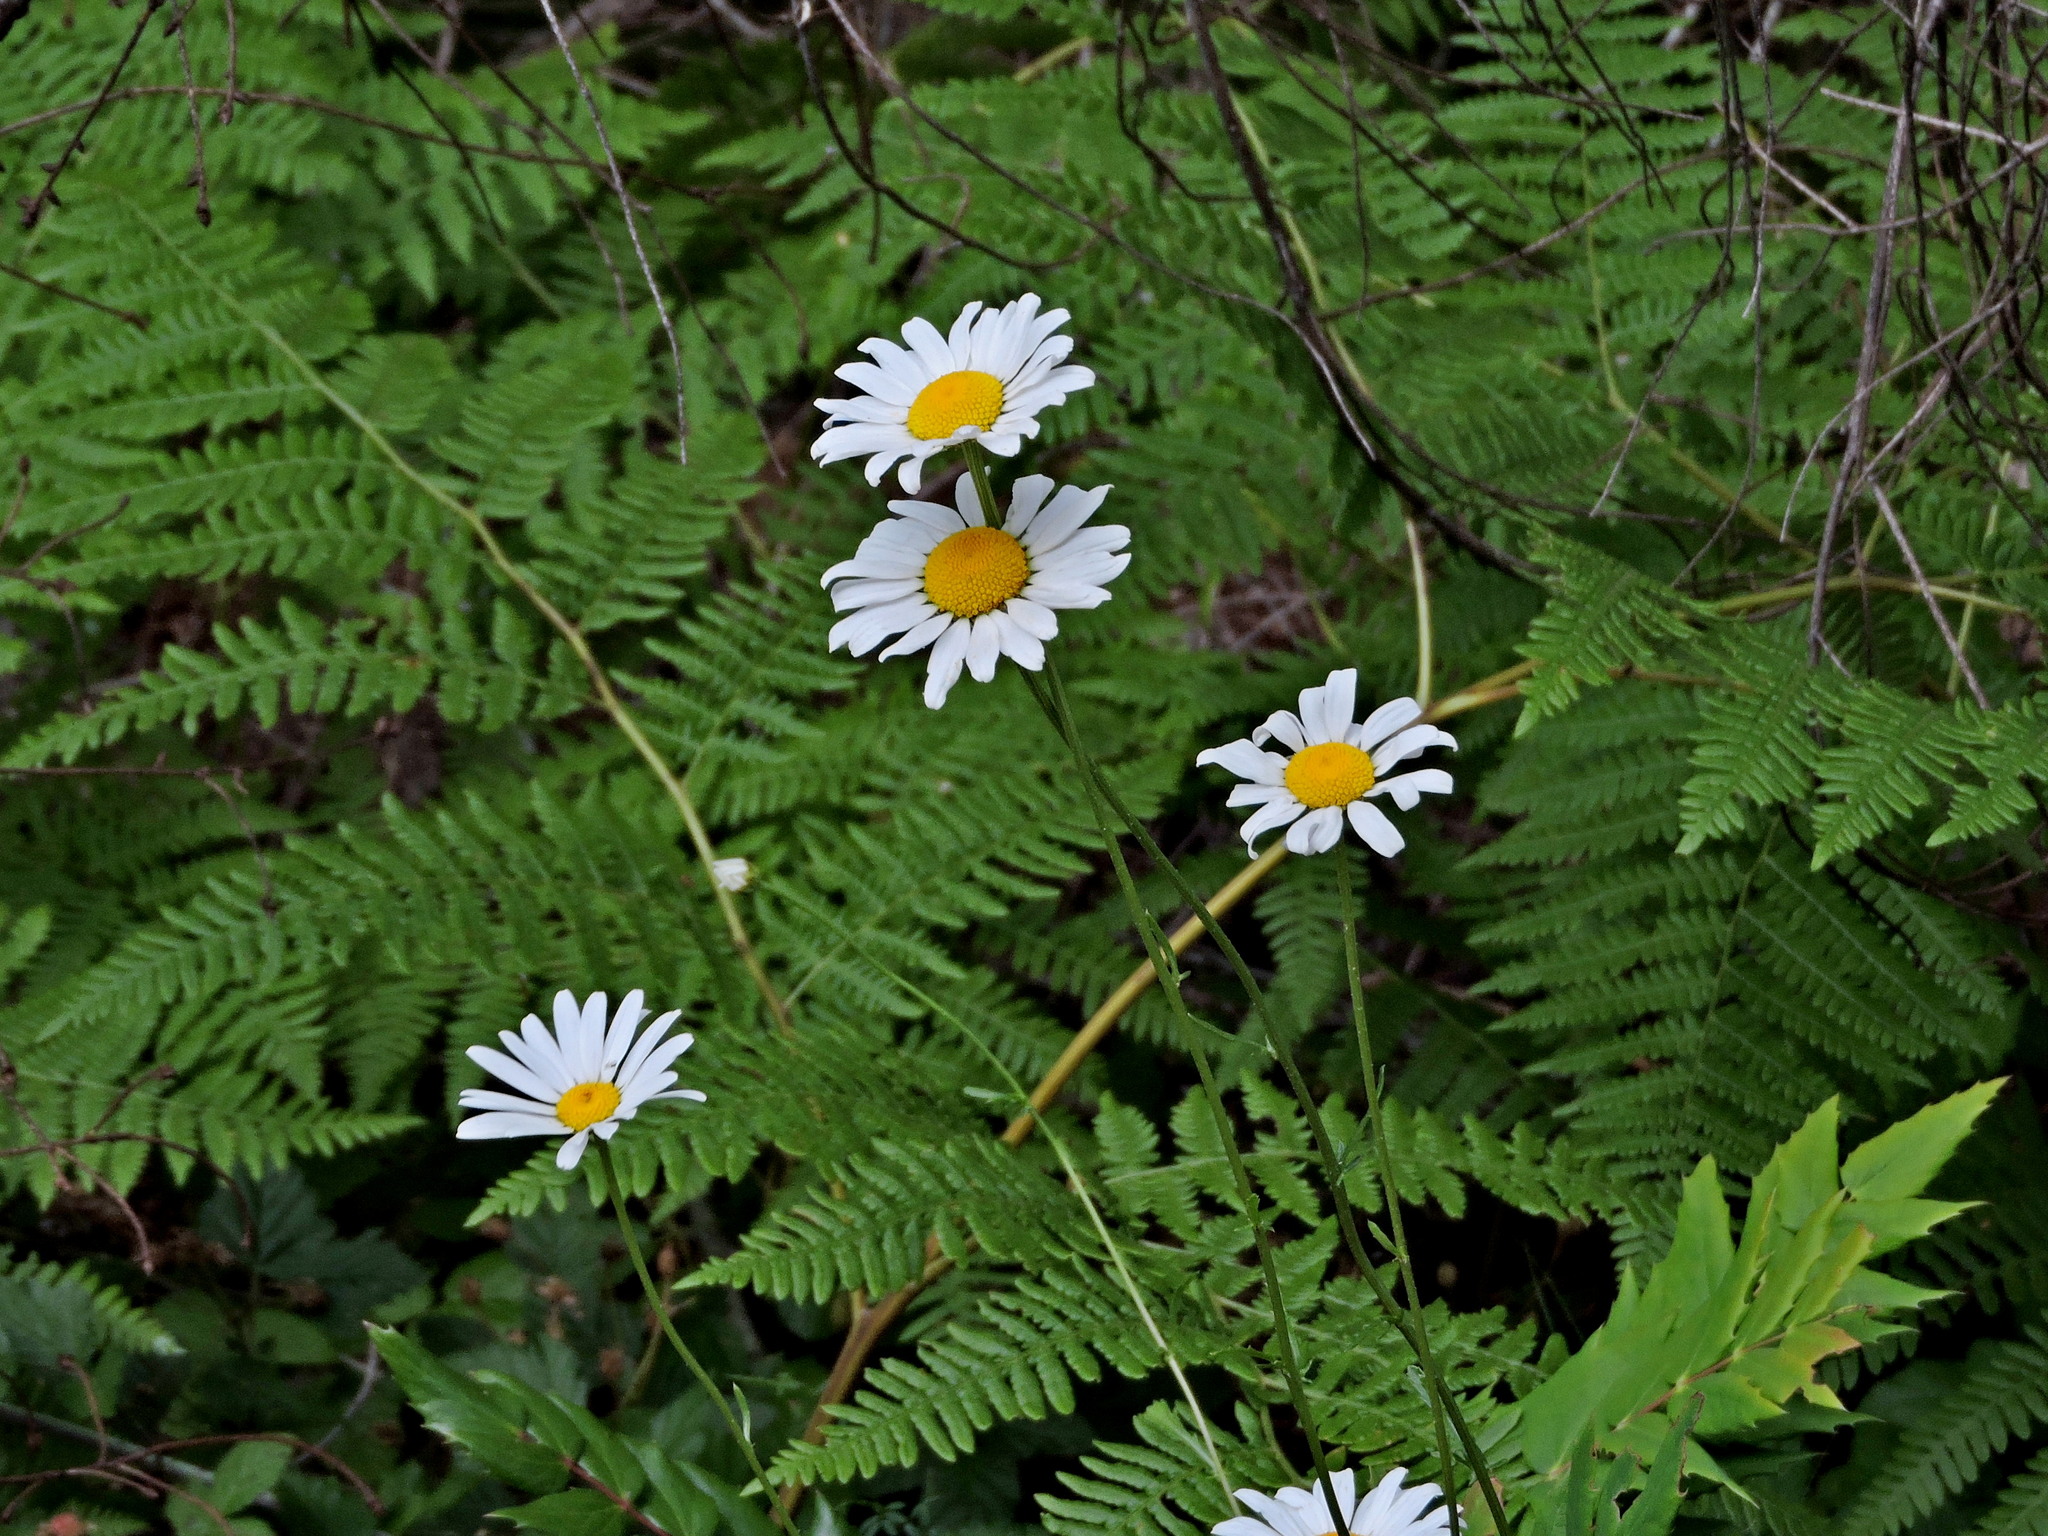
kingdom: Plantae
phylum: Tracheophyta
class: Magnoliopsida
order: Asterales
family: Asteraceae
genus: Leucanthemum
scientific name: Leucanthemum vulgare
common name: Oxeye daisy
